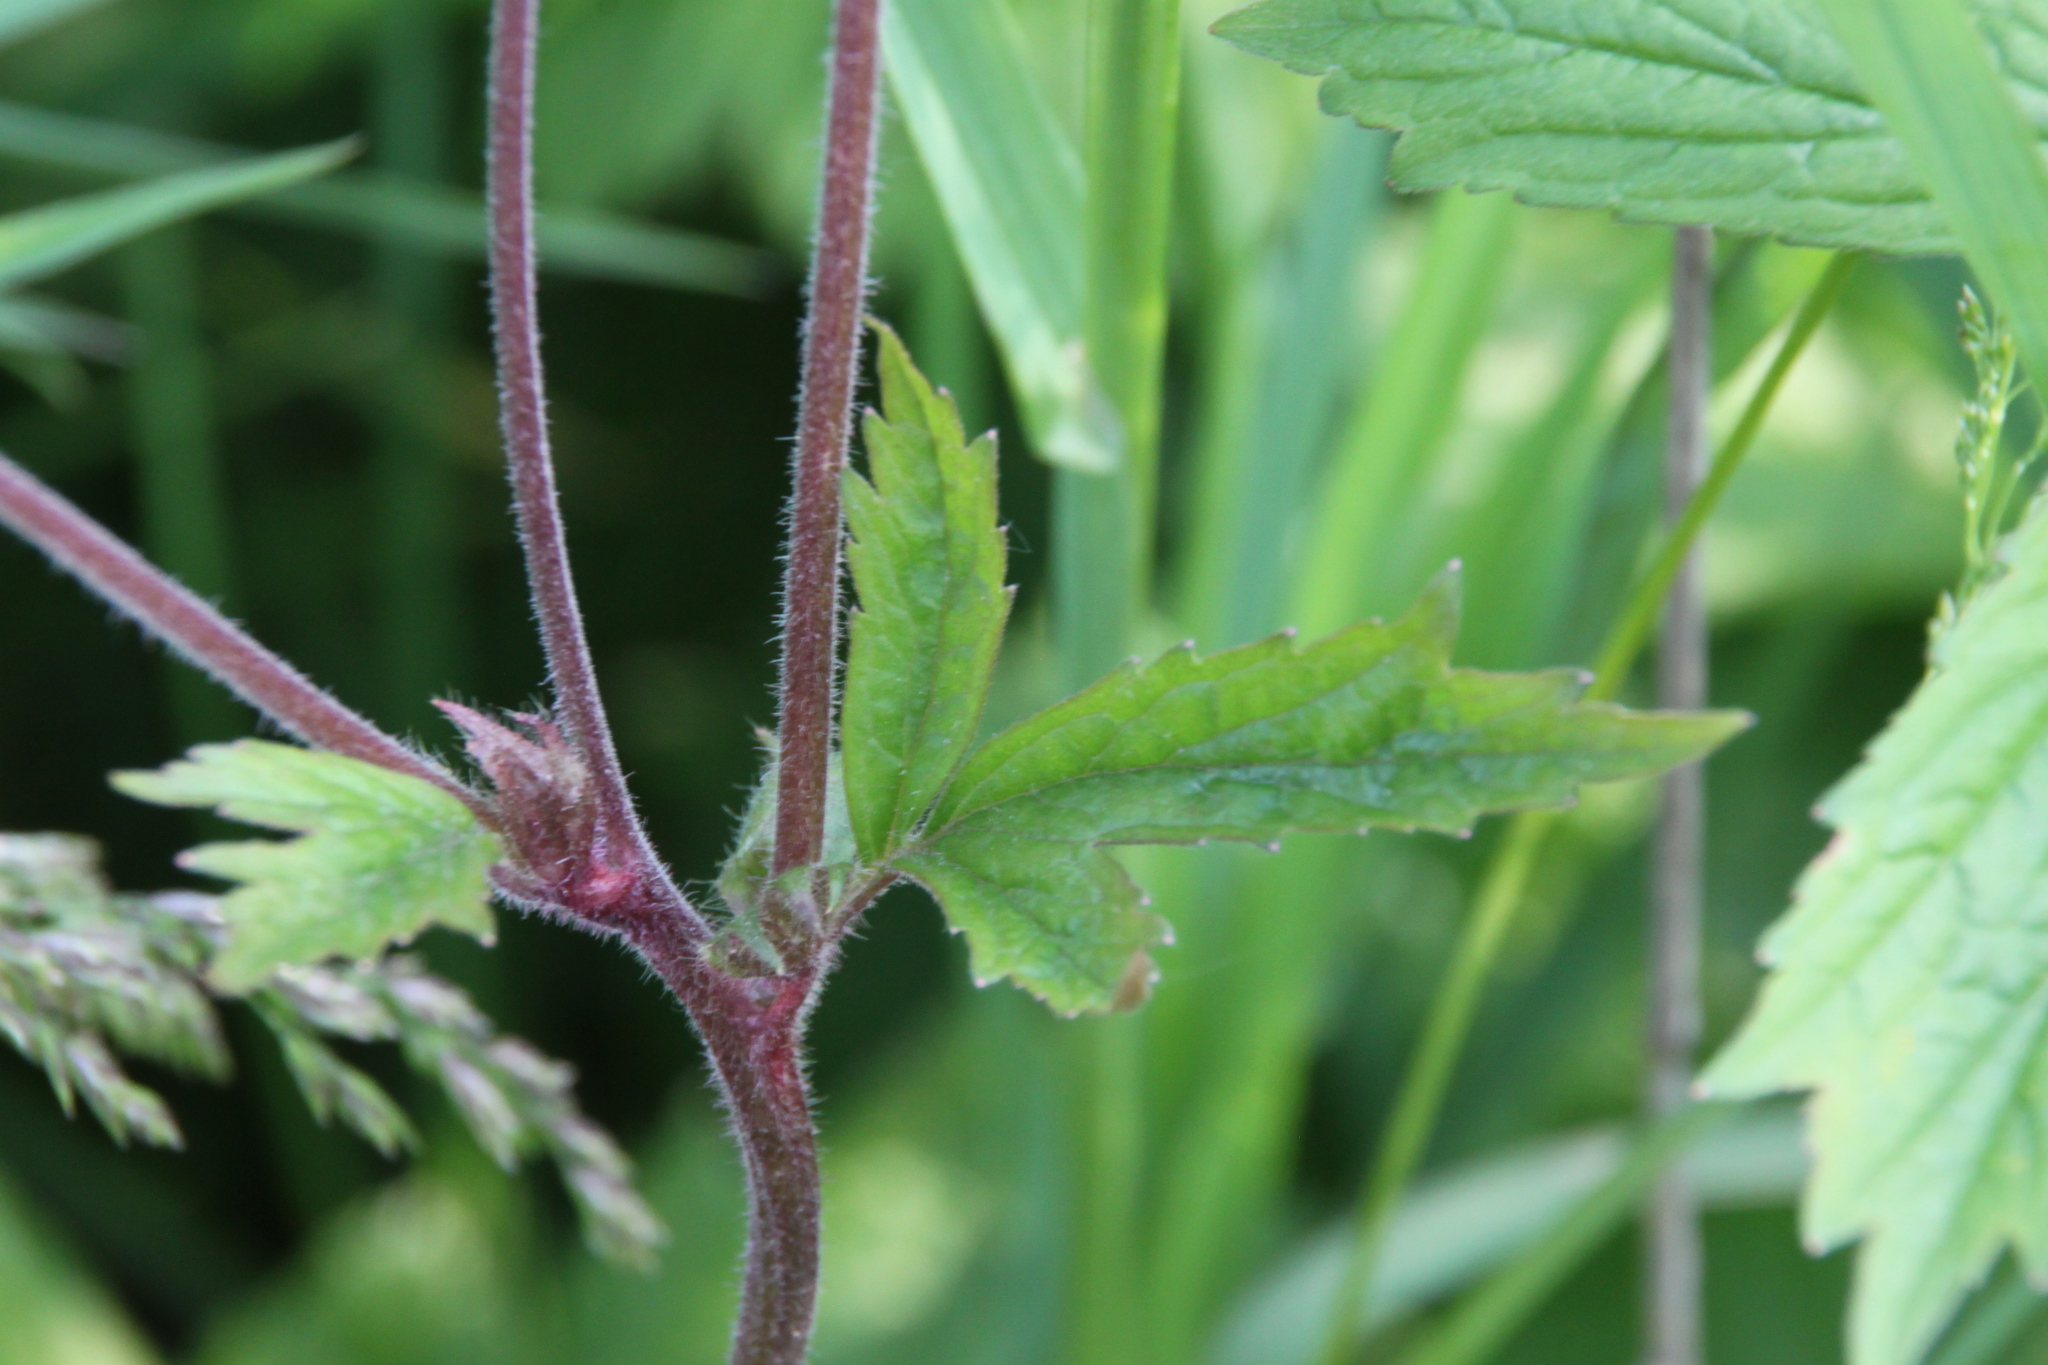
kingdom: Plantae
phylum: Tracheophyta
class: Magnoliopsida
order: Rosales
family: Rosaceae
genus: Geum
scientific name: Geum rivale
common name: Water avens
